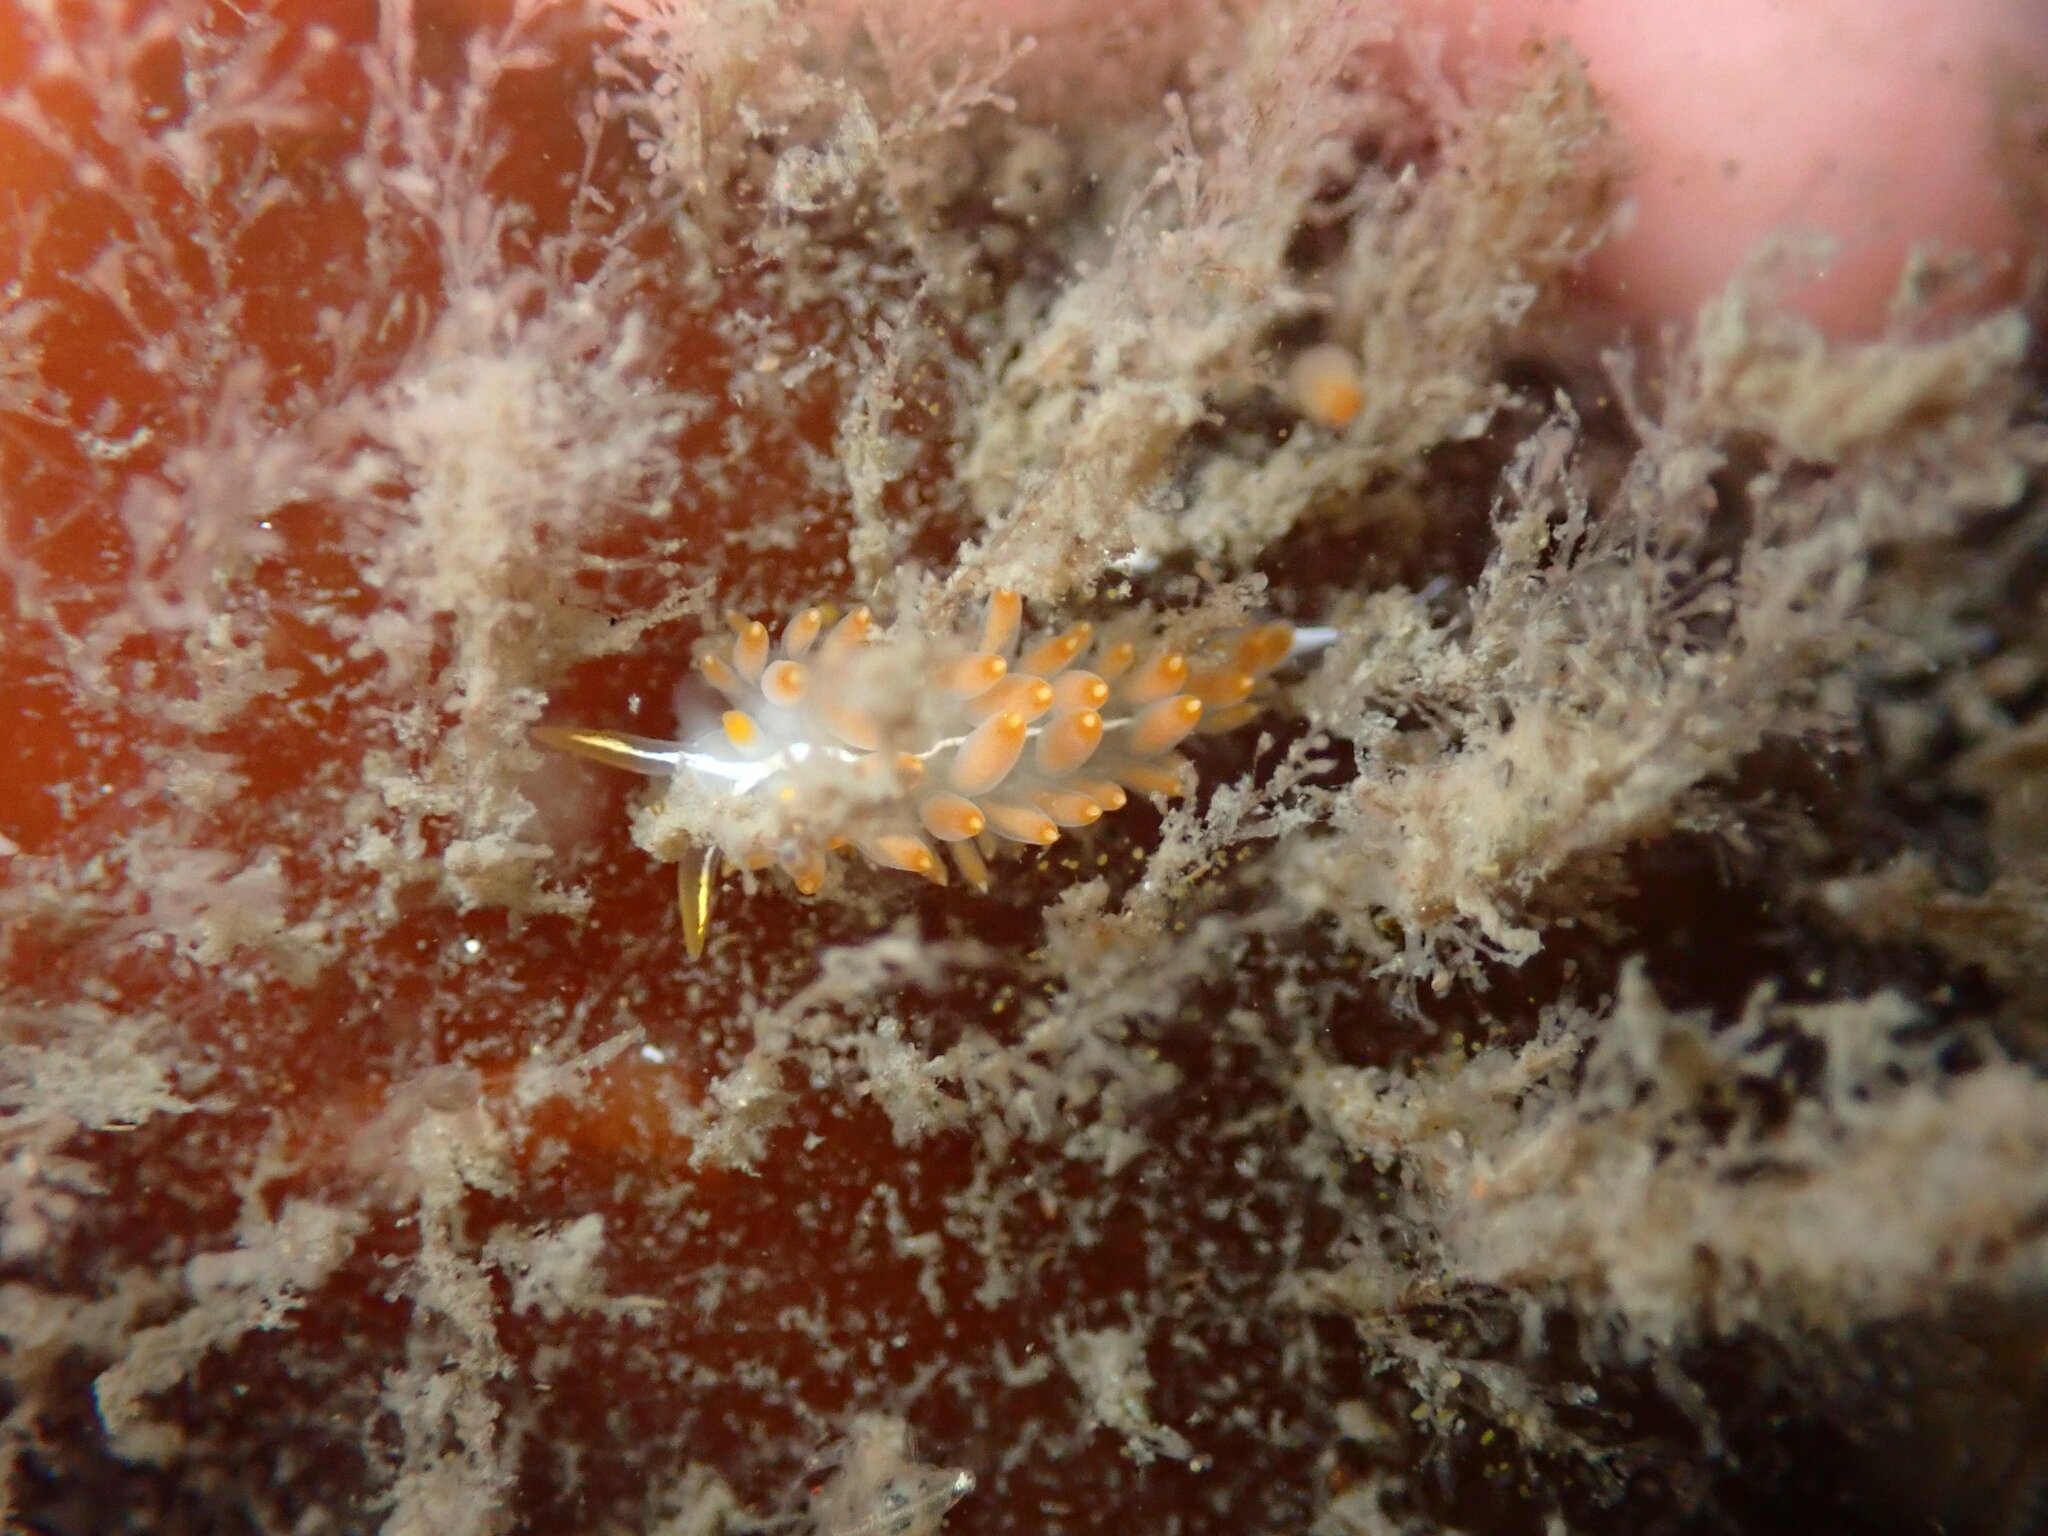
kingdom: Animalia
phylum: Mollusca
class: Gastropoda
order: Nudibranchia
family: Coryphellidae
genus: Coryphella
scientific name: Coryphella trilineata
